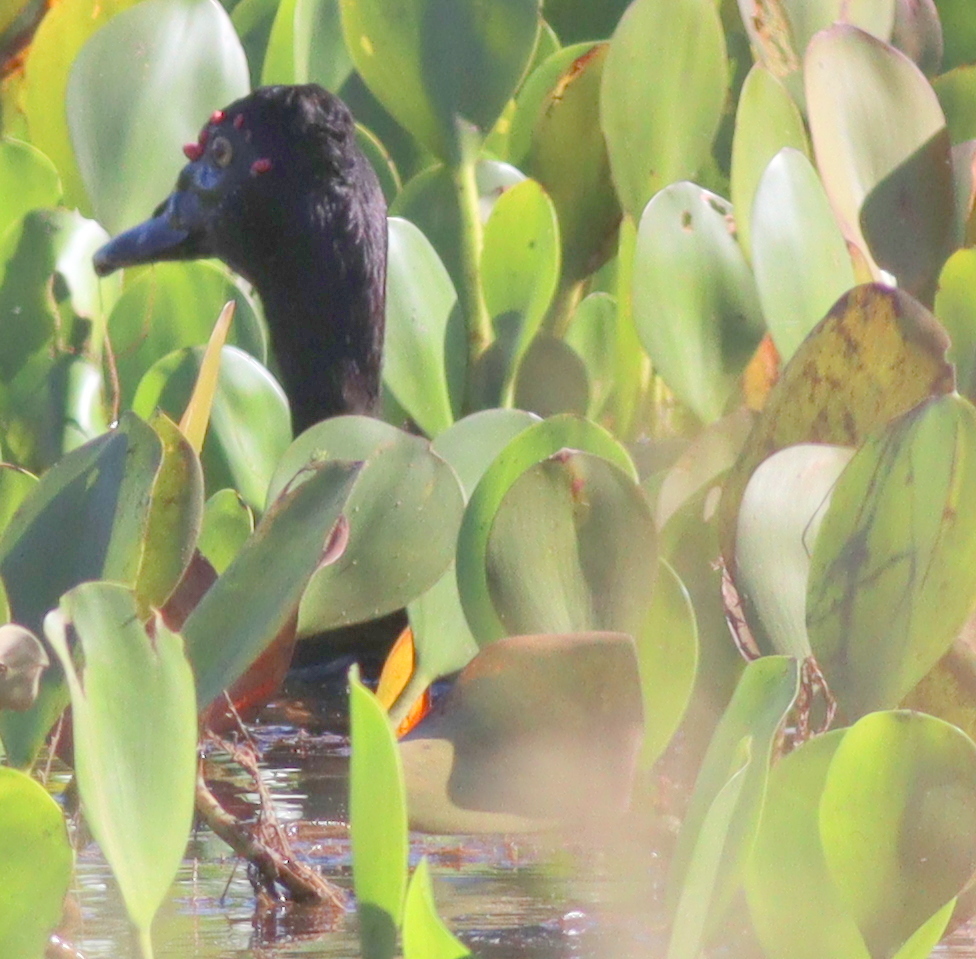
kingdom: Animalia
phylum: Chordata
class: Aves
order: Anseriformes
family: Anatidae
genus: Cairina
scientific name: Cairina moschata
